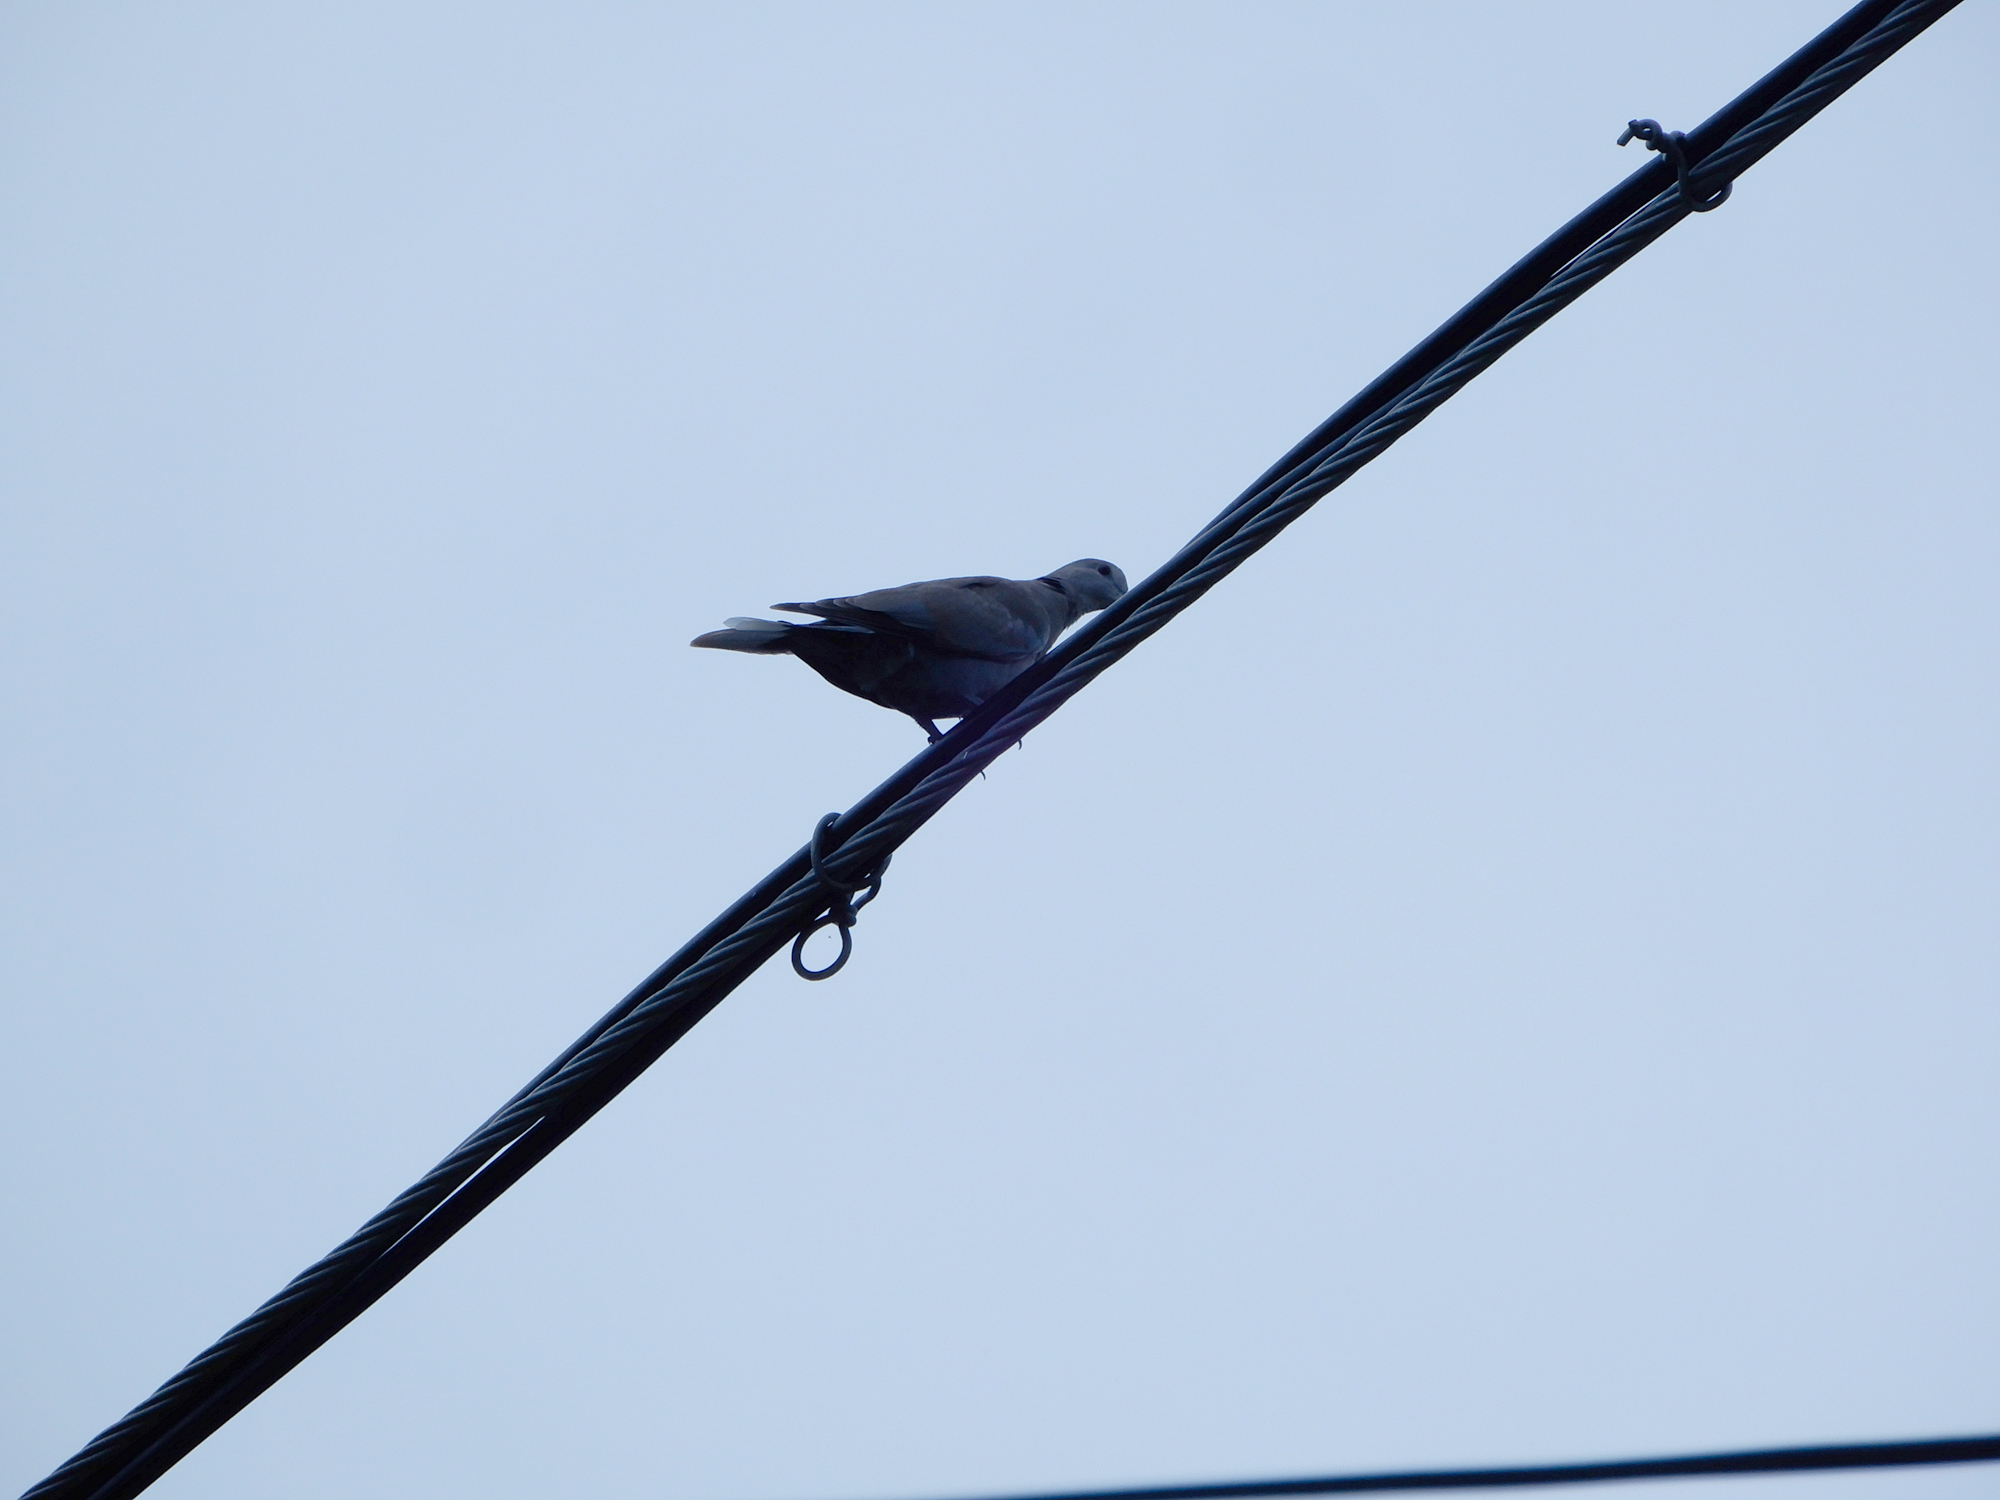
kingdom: Animalia
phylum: Chordata
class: Aves
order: Columbiformes
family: Columbidae
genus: Streptopelia
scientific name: Streptopelia decaocto
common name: Eurasian collared dove
